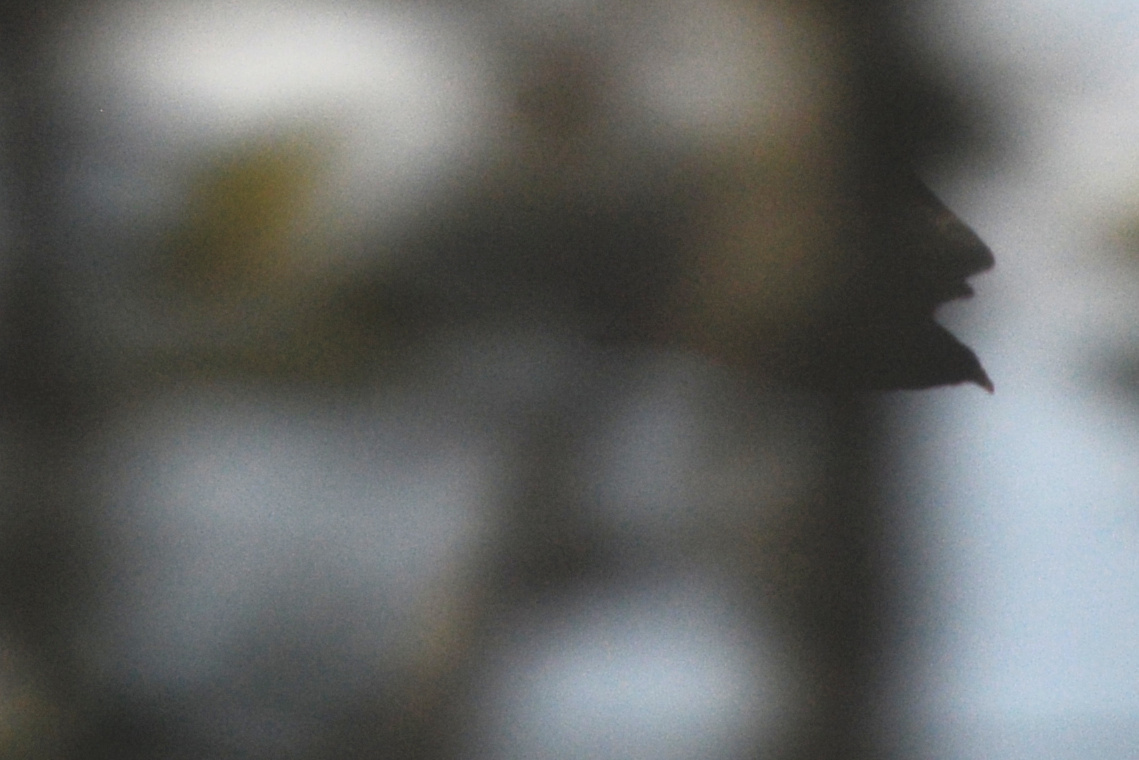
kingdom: Animalia
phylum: Chordata
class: Aves
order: Accipitriformes
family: Cathartidae
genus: Cathartes
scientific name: Cathartes aura
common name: Turkey vulture
